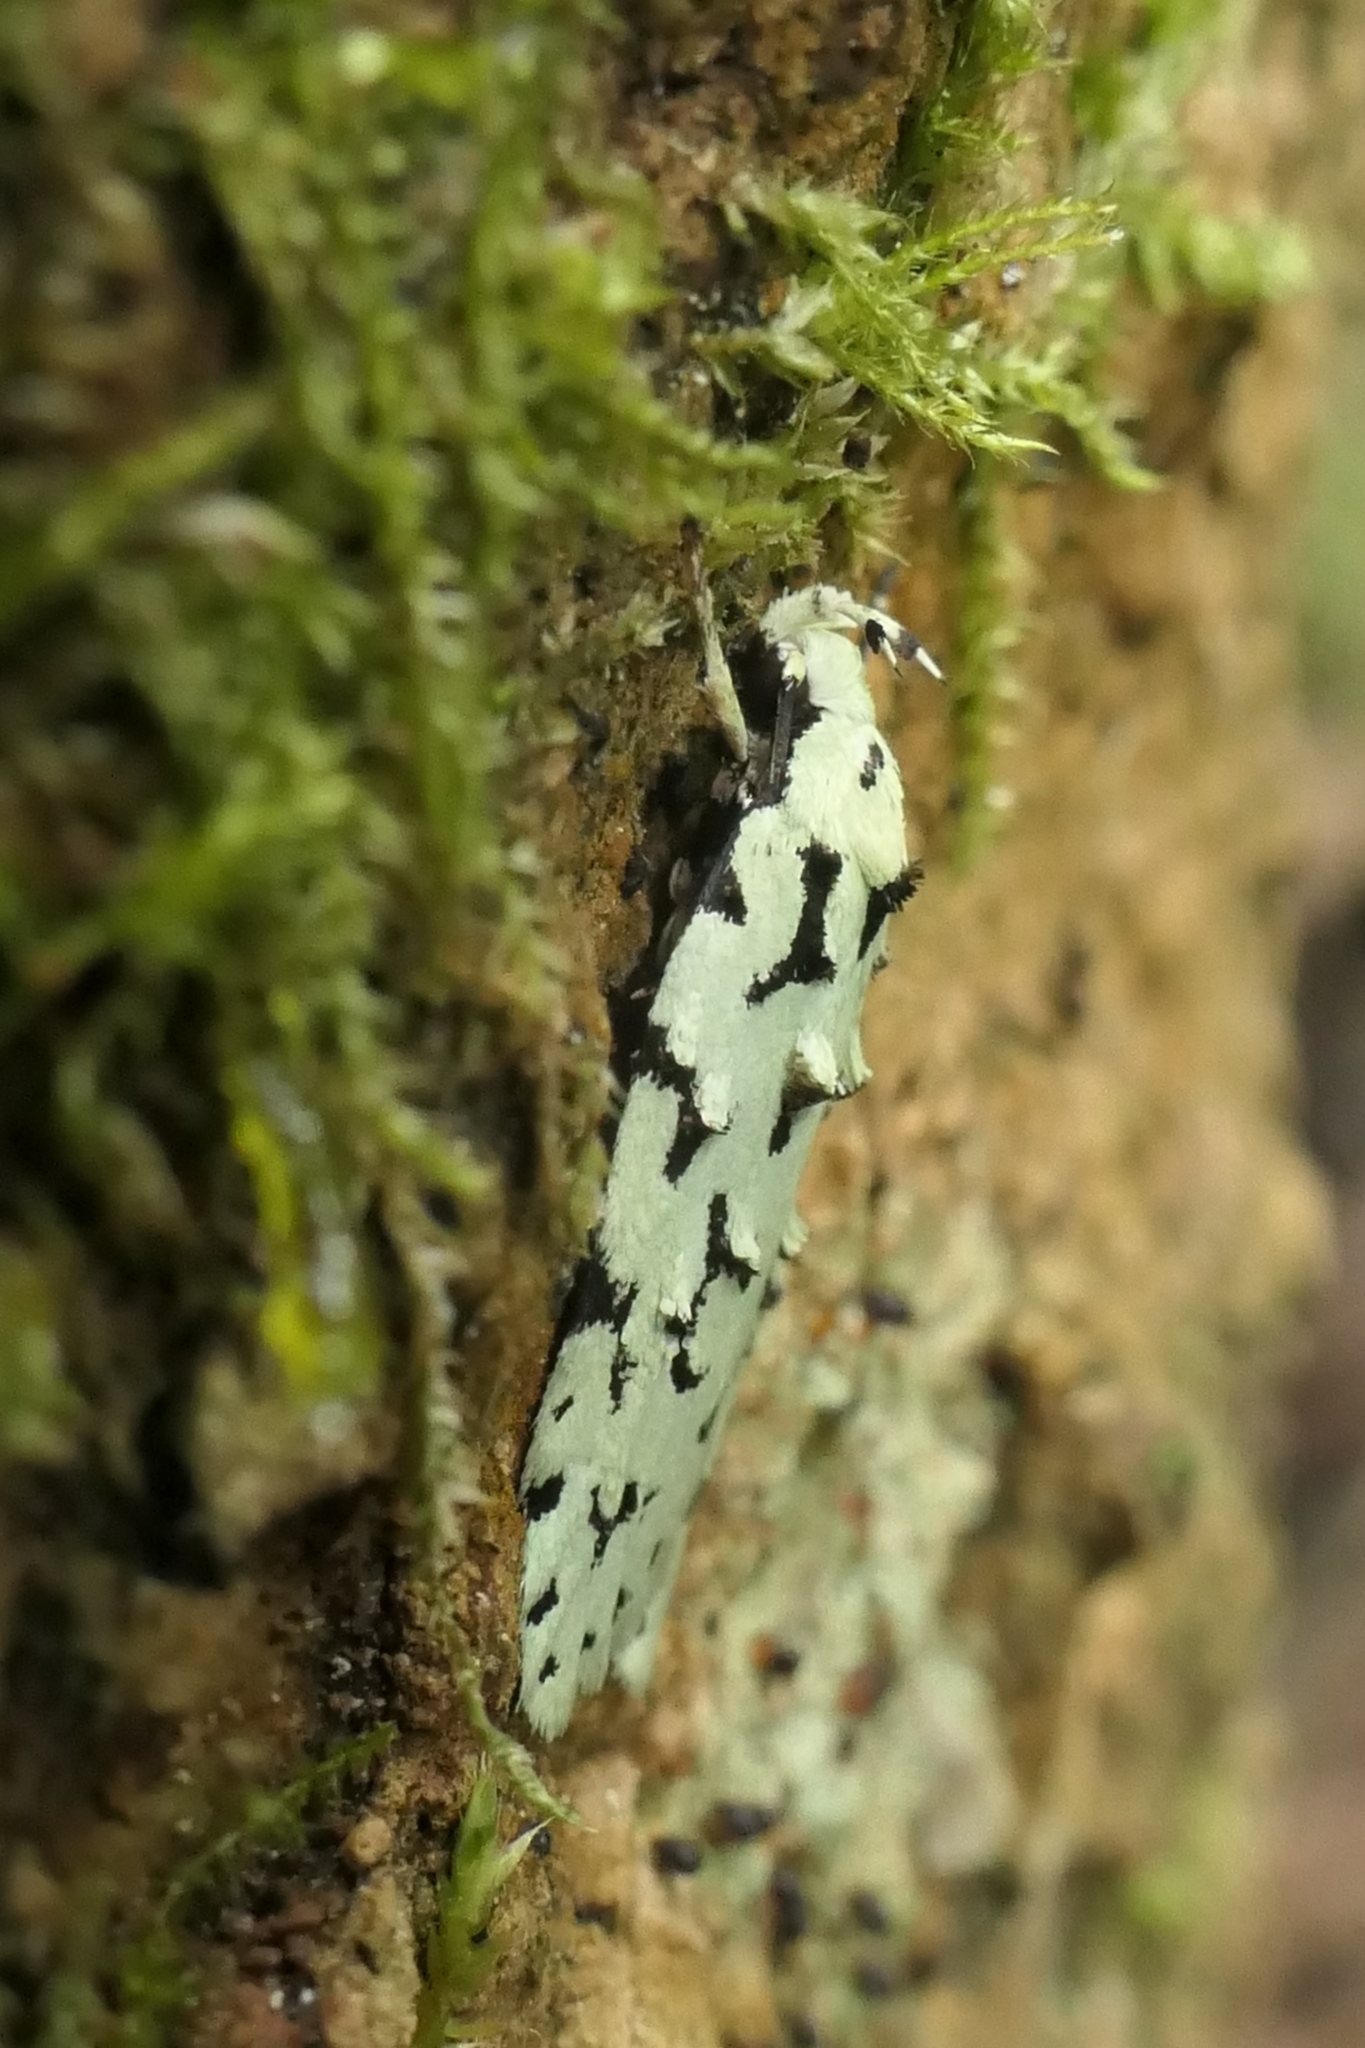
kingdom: Animalia
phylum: Arthropoda
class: Insecta
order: Lepidoptera
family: Oecophoridae
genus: Izatha
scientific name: Izatha huttoni
